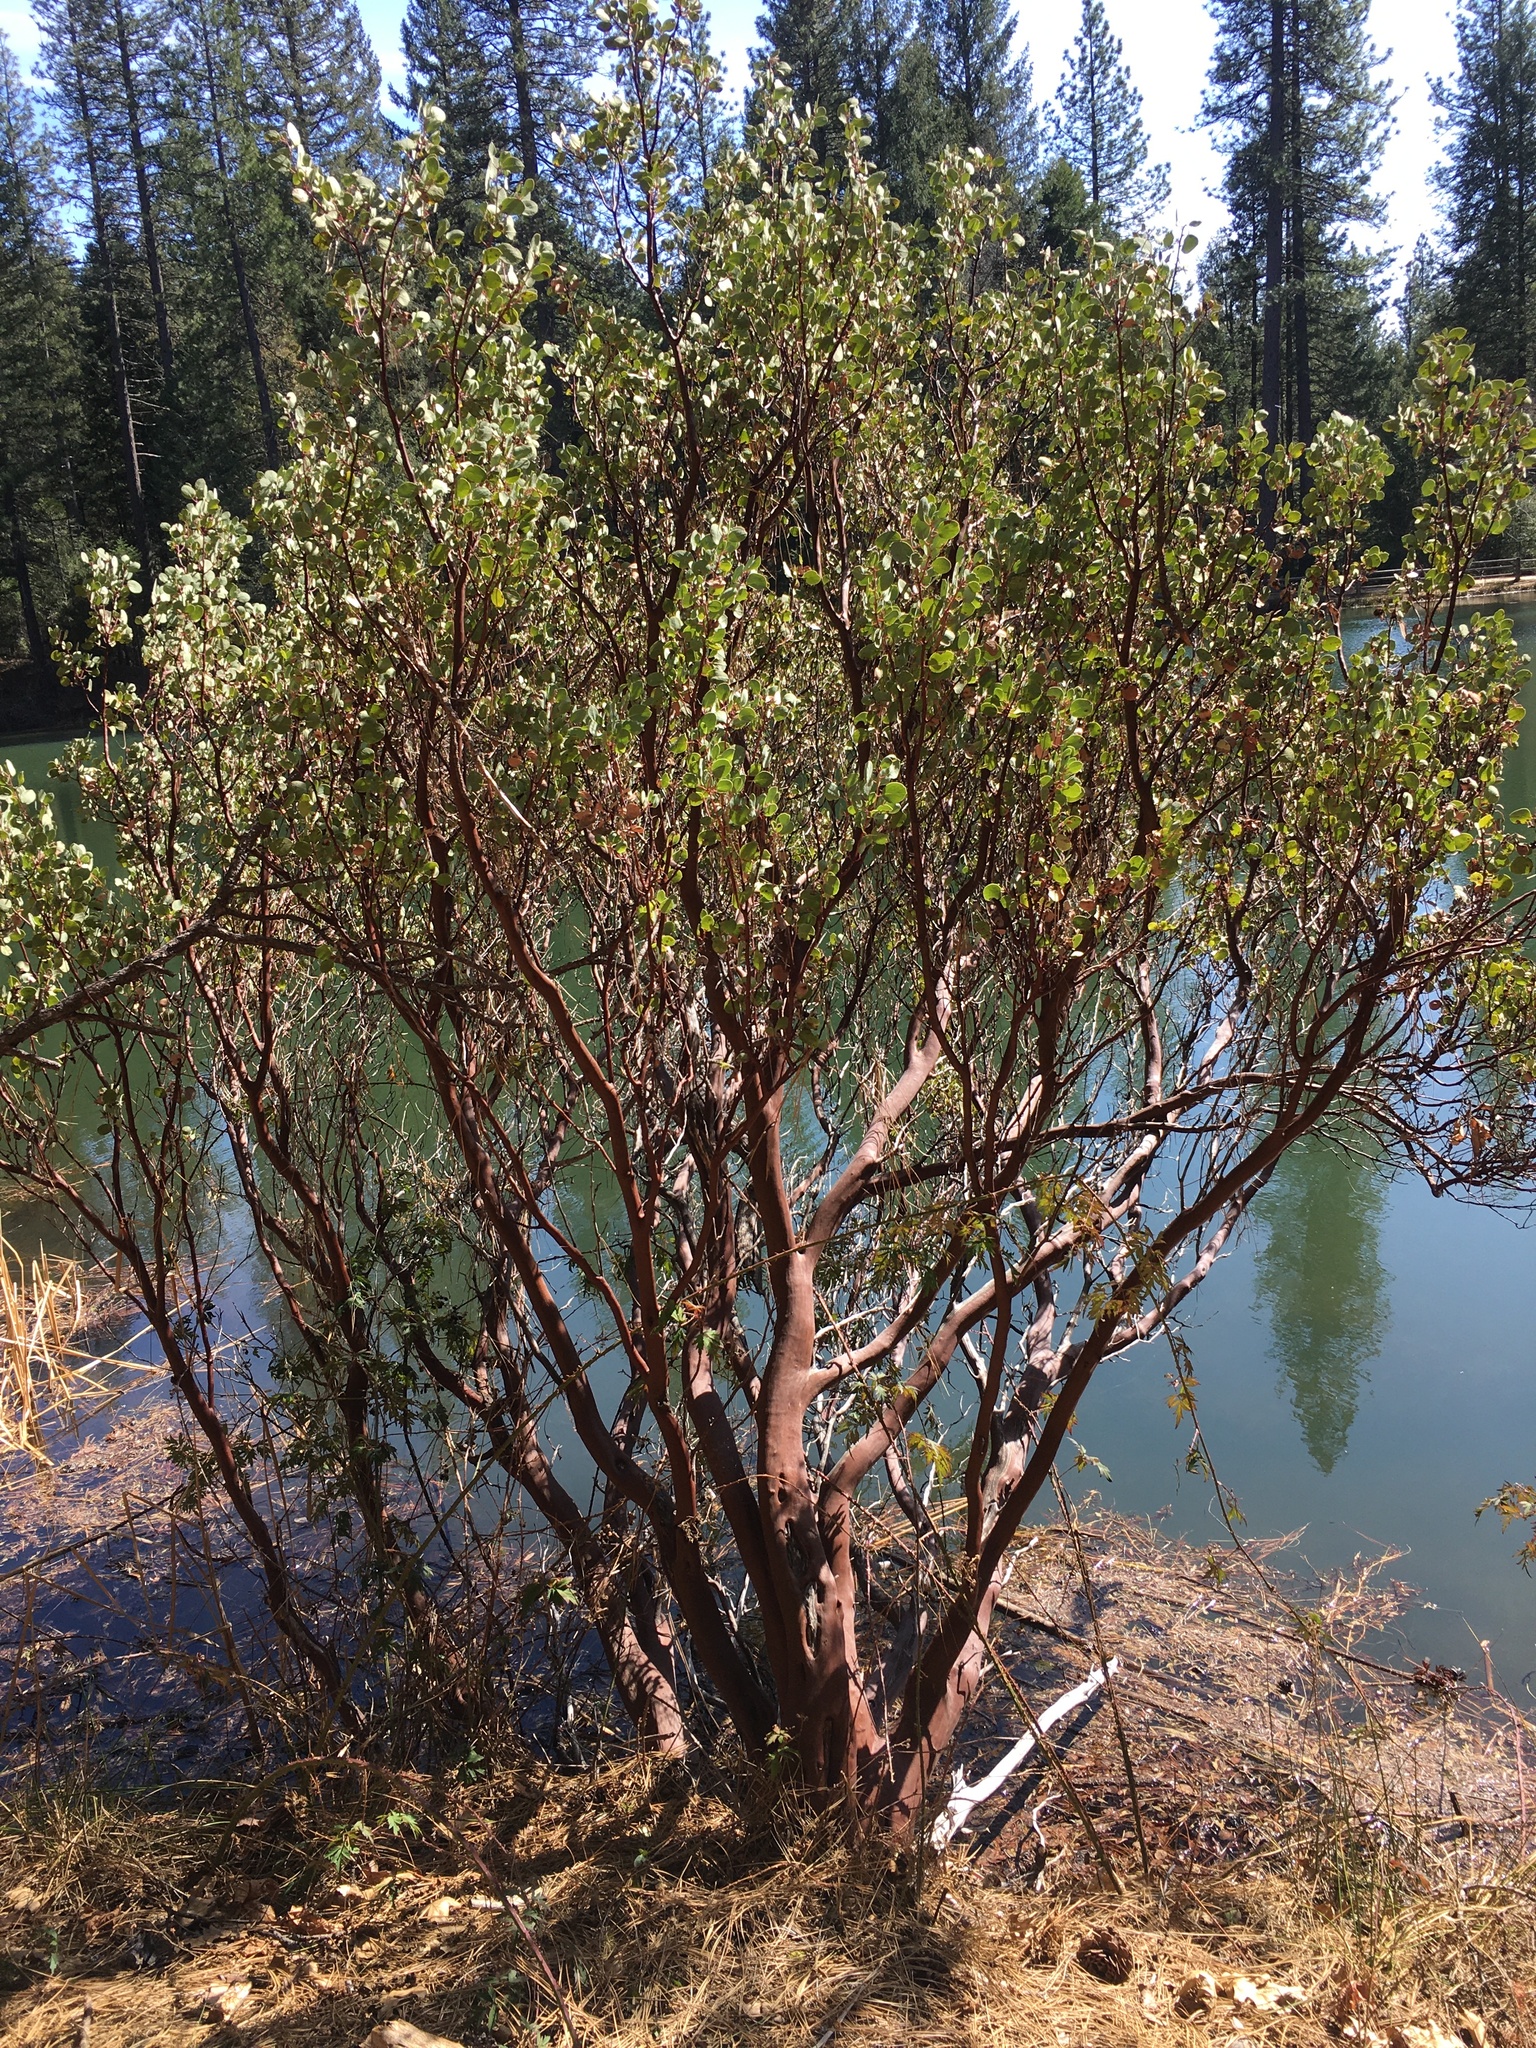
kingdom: Plantae
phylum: Tracheophyta
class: Magnoliopsida
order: Ericales
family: Ericaceae
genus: Arctostaphylos
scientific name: Arctostaphylos patula
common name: Green-leaf manzanita
